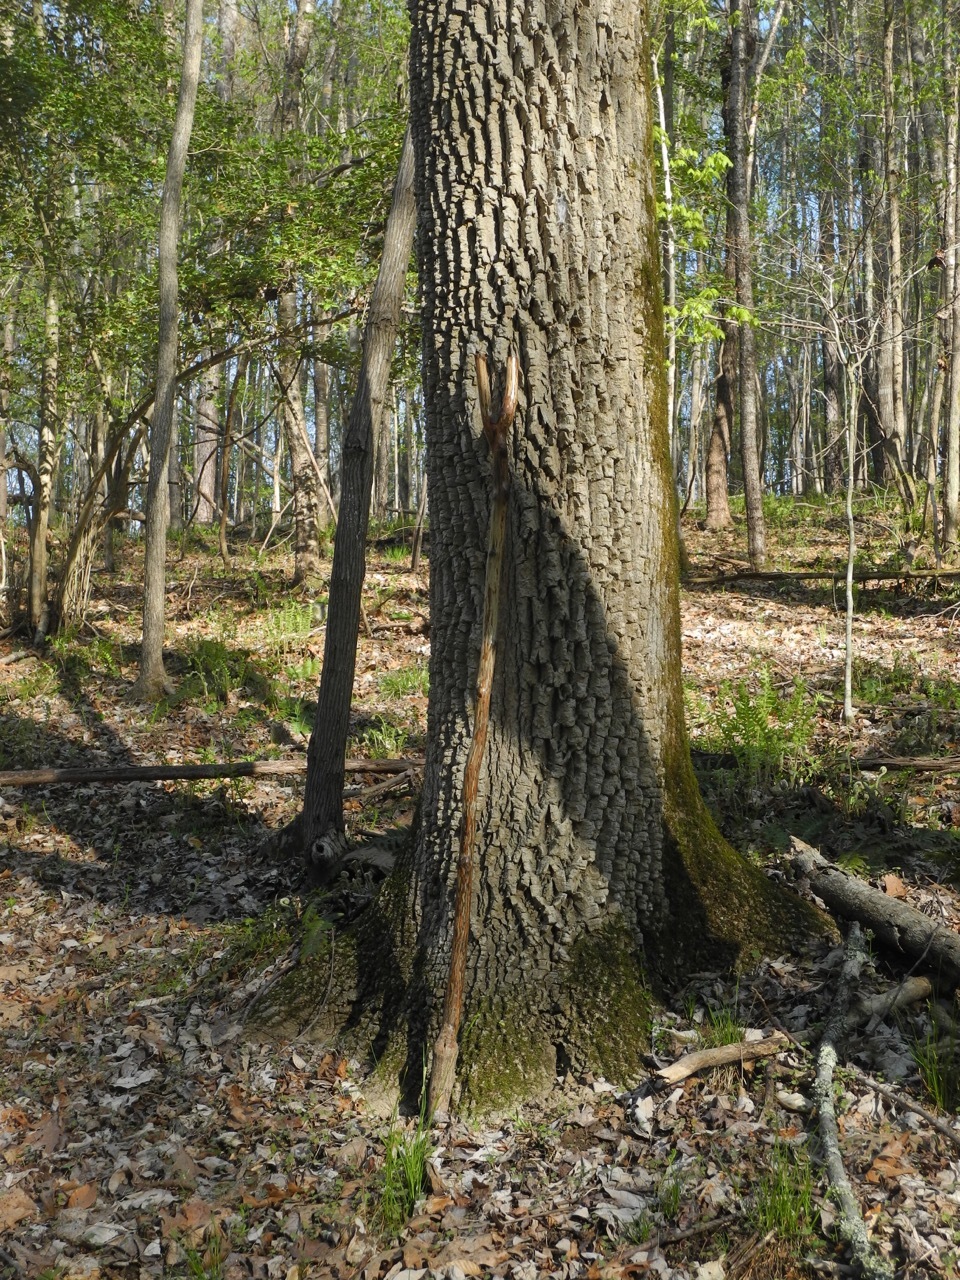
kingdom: Plantae
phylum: Tracheophyta
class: Magnoliopsida
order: Cornales
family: Nyssaceae
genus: Nyssa
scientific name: Nyssa sylvatica
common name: Black tupelo
